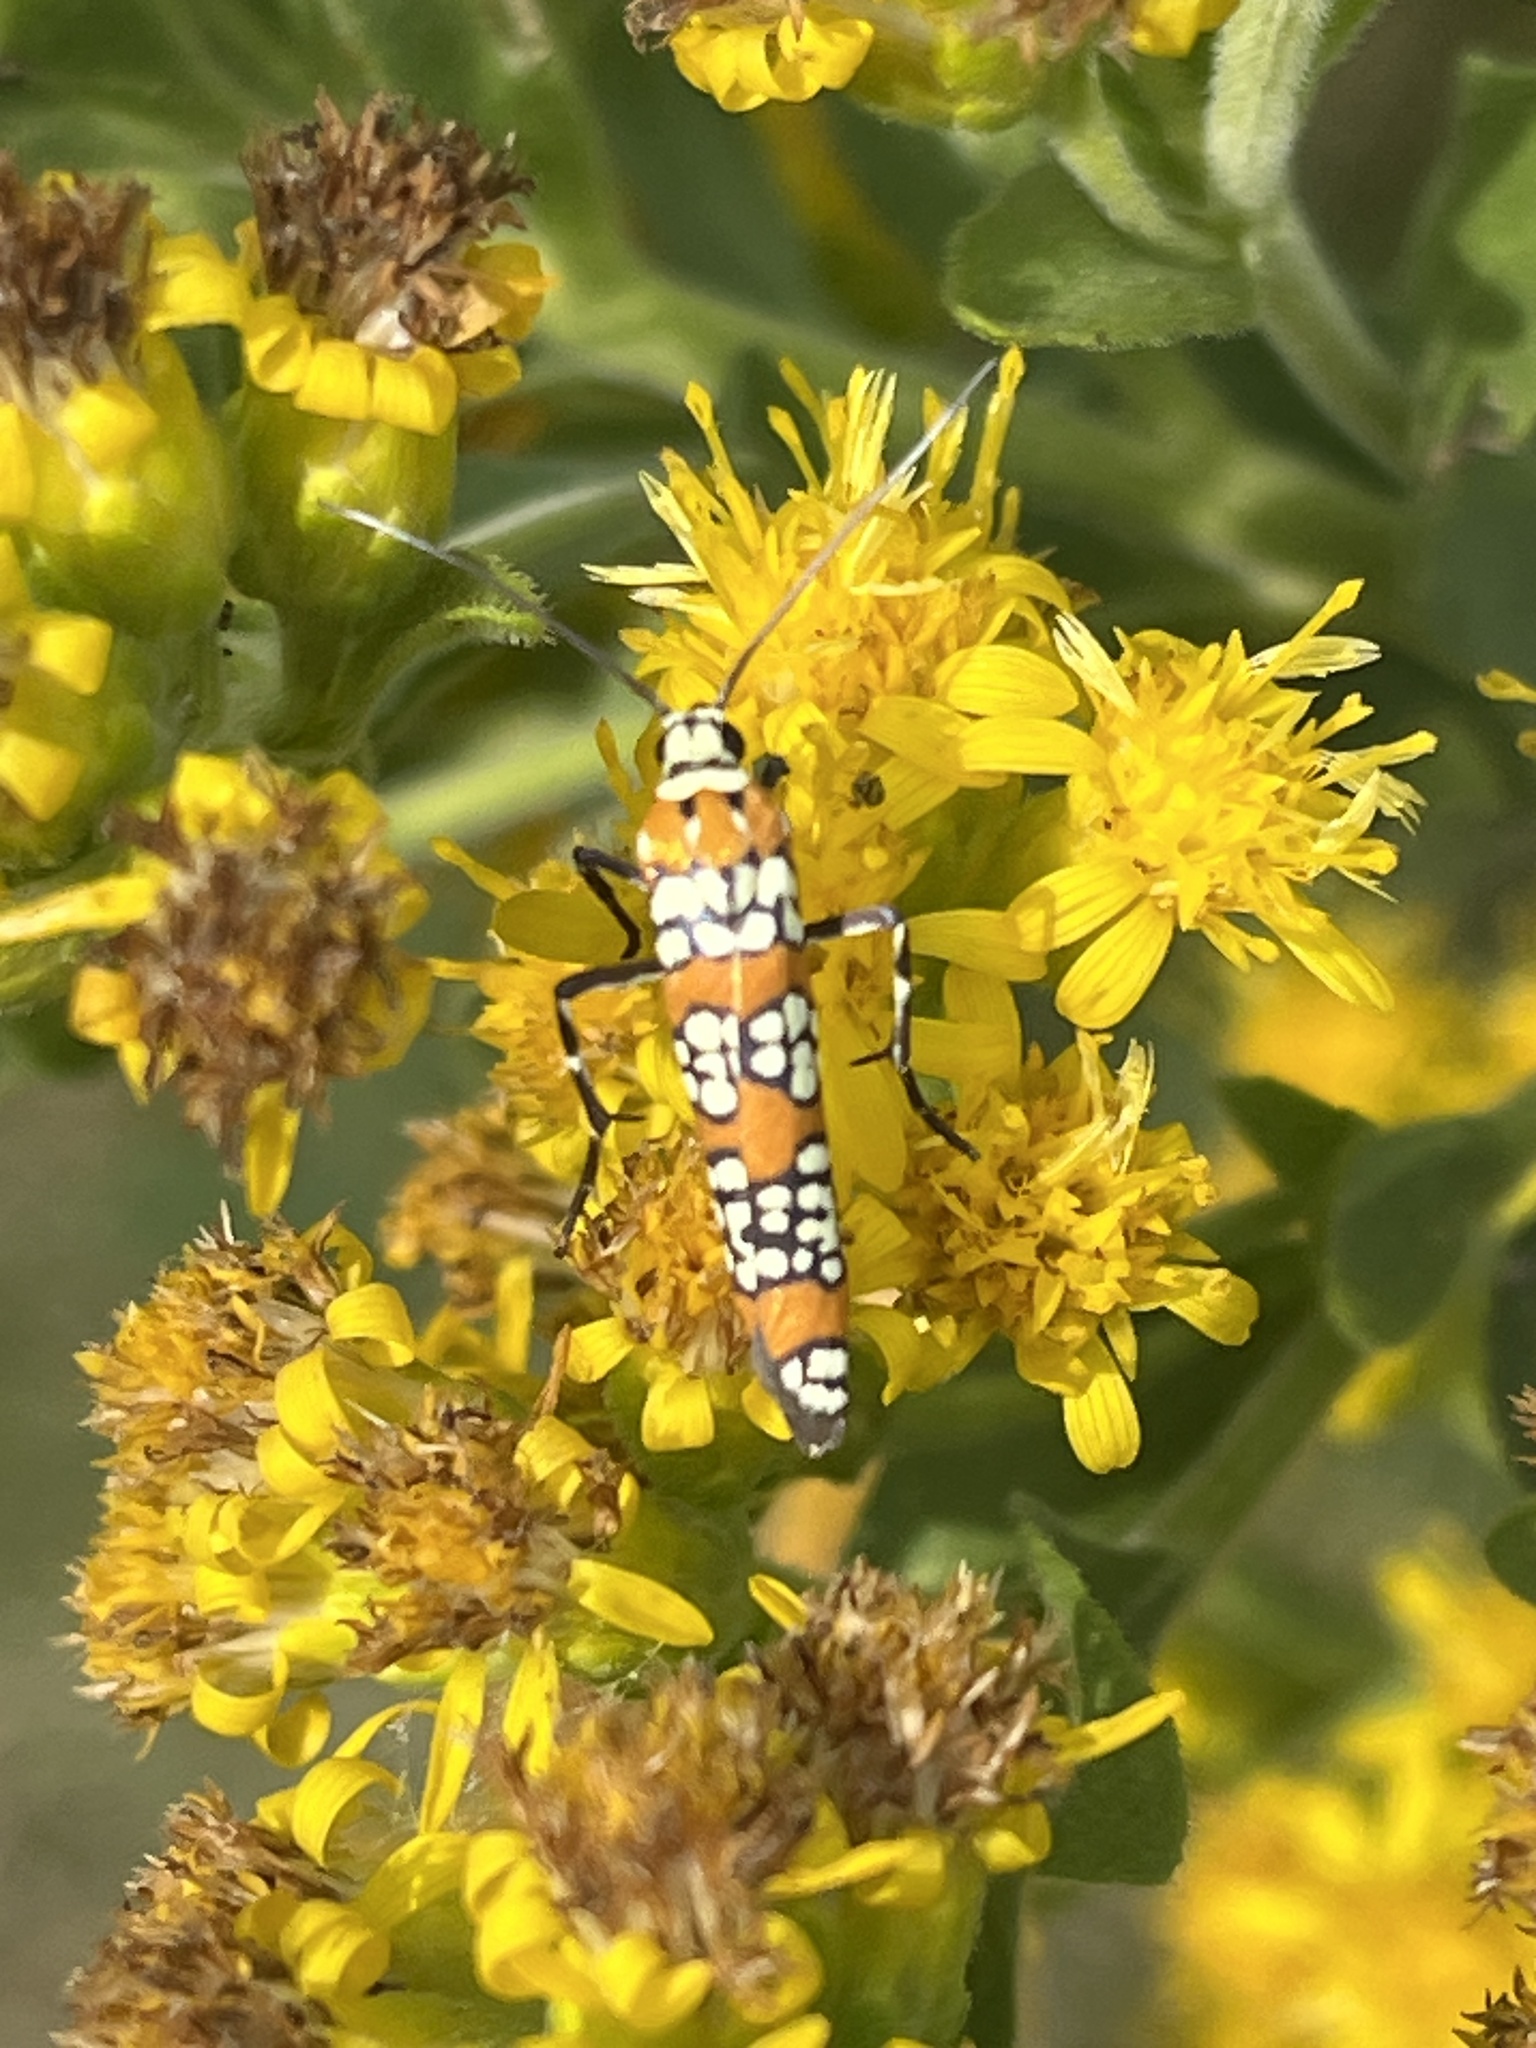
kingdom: Animalia
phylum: Arthropoda
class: Insecta
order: Lepidoptera
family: Attevidae
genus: Atteva
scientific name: Atteva punctella
